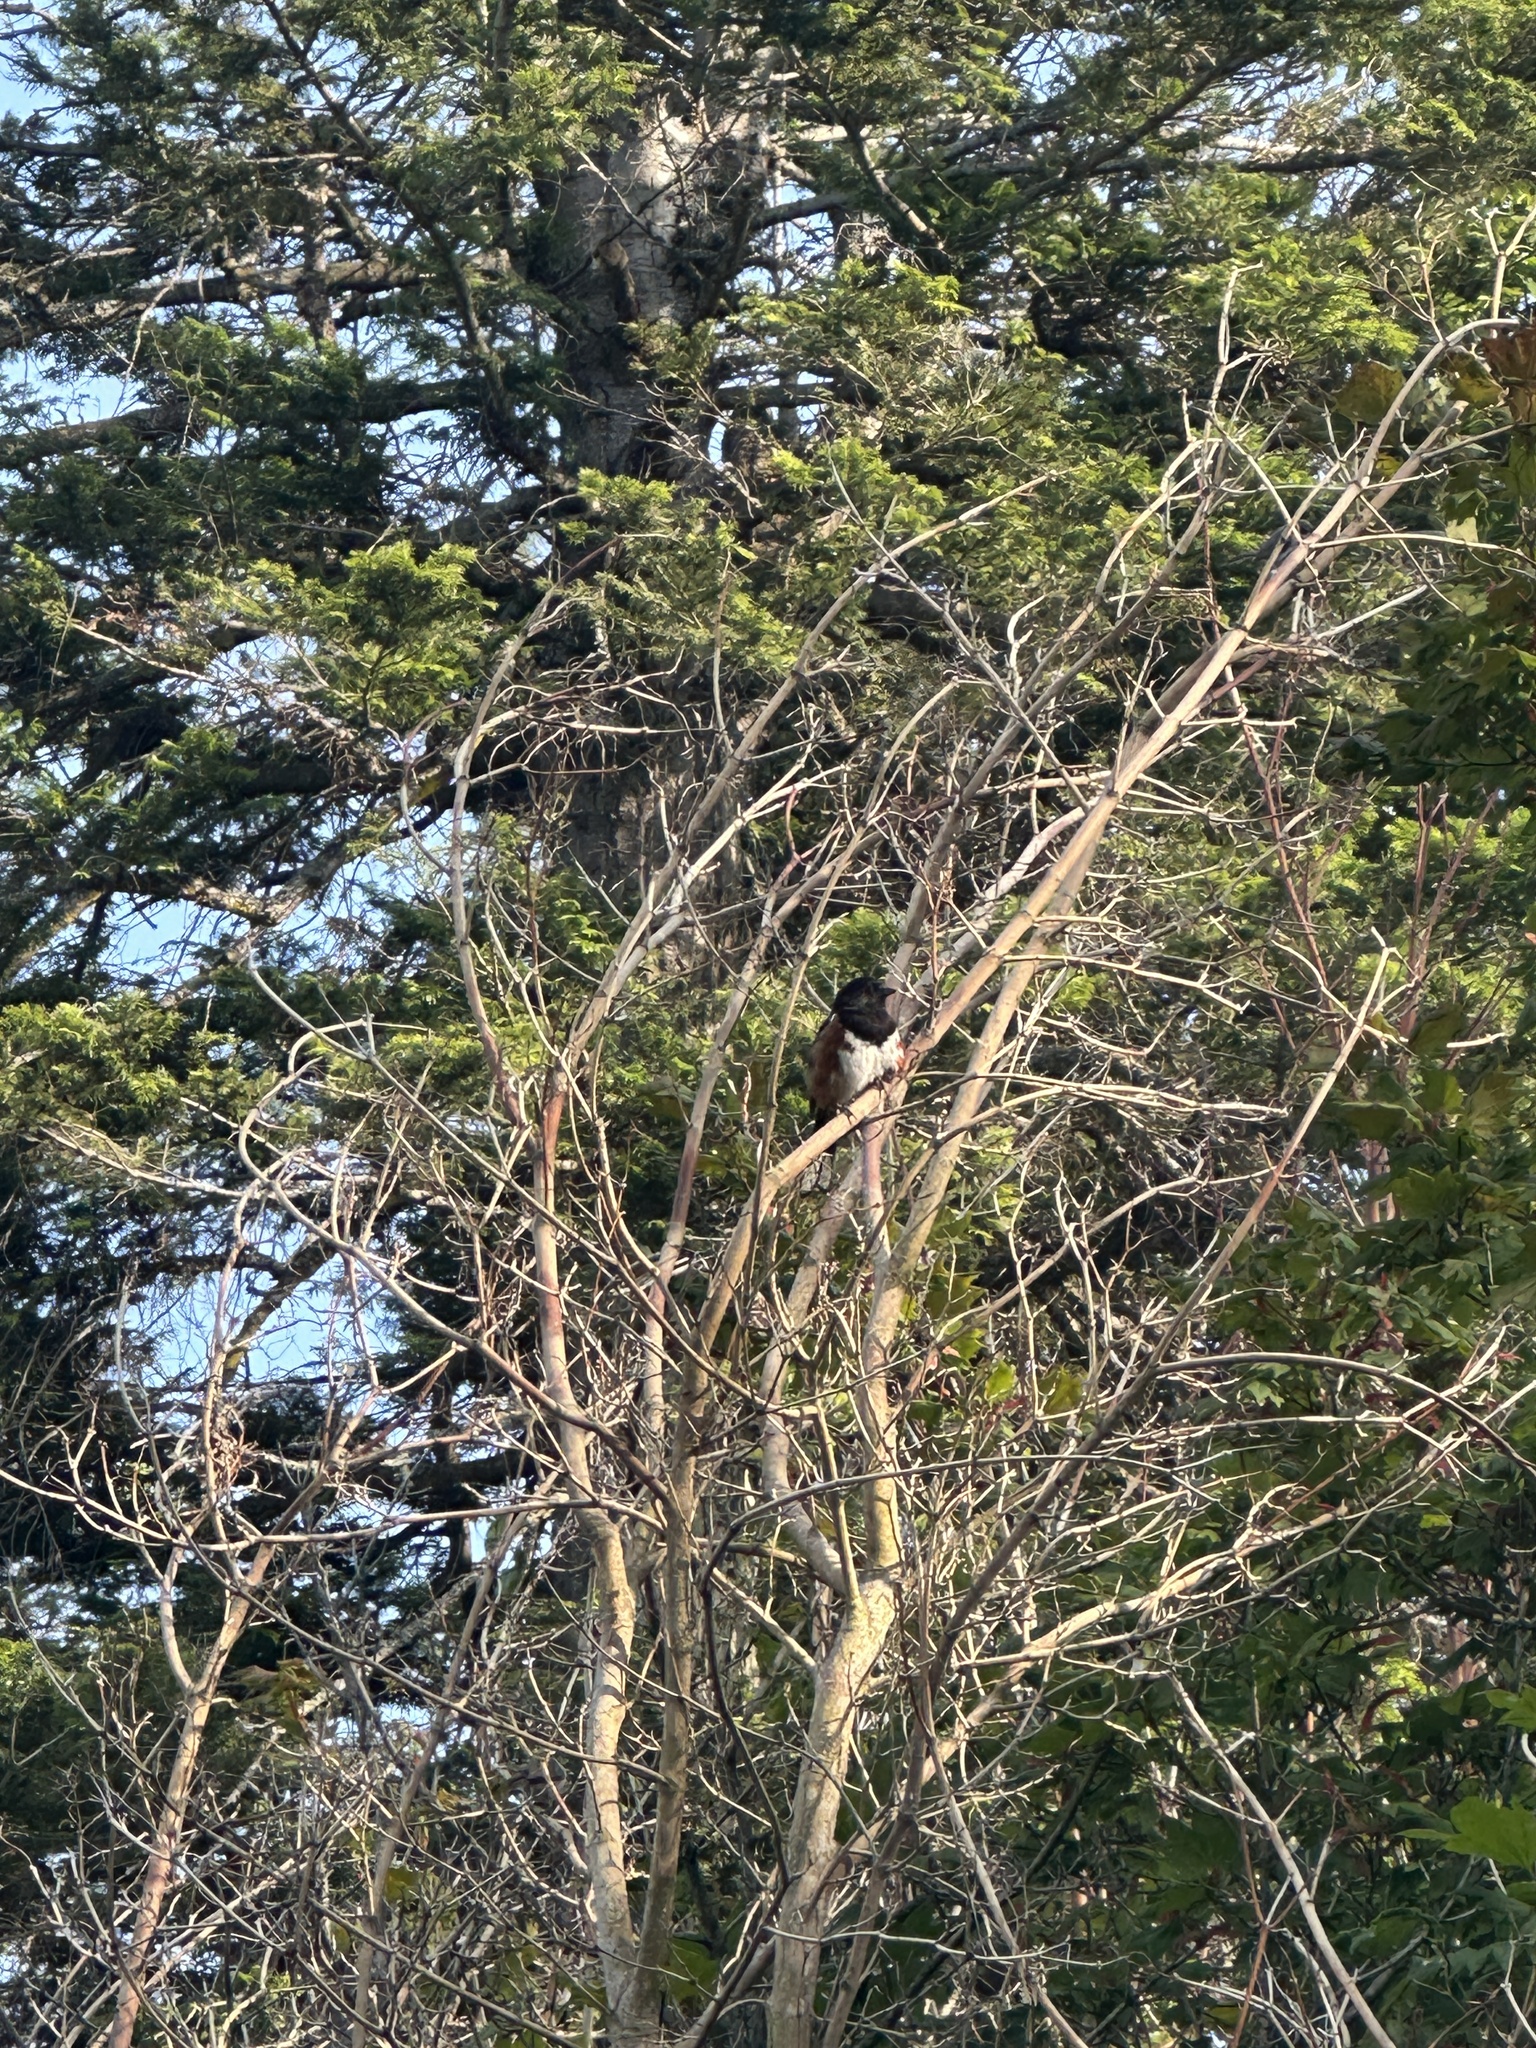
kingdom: Animalia
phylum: Chordata
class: Aves
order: Passeriformes
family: Passerellidae
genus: Pipilo
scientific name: Pipilo maculatus
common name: Spotted towhee
